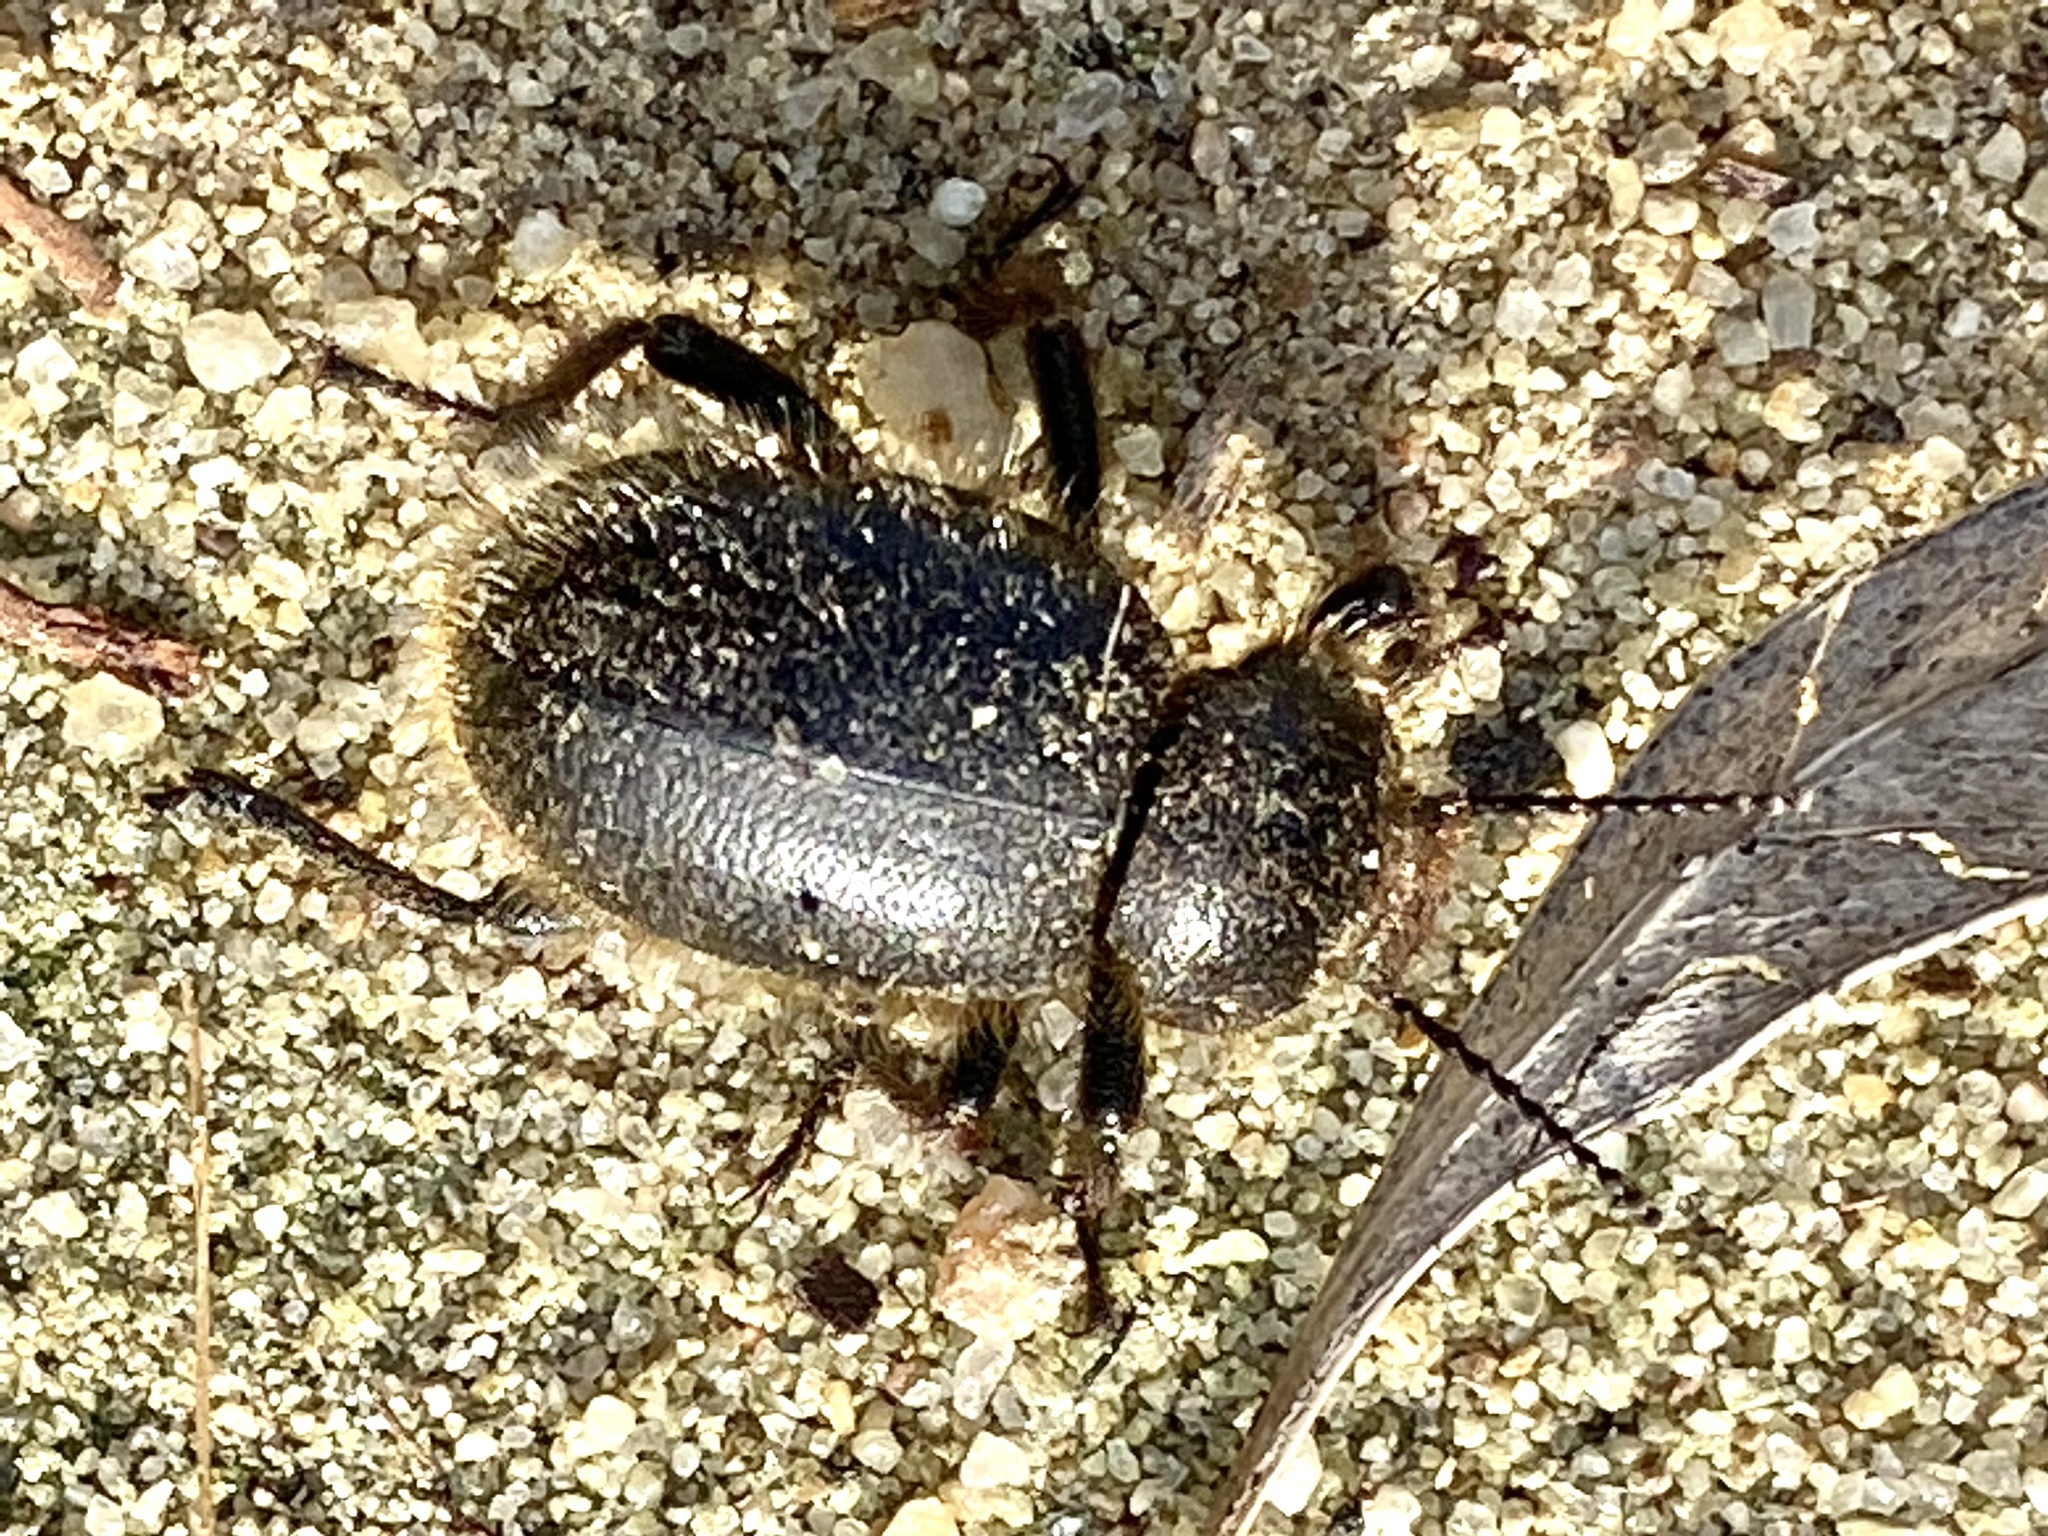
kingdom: Animalia
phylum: Arthropoda
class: Insecta
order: Coleoptera
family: Tenebrionidae
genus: Eleodes
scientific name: Eleodes osculans
